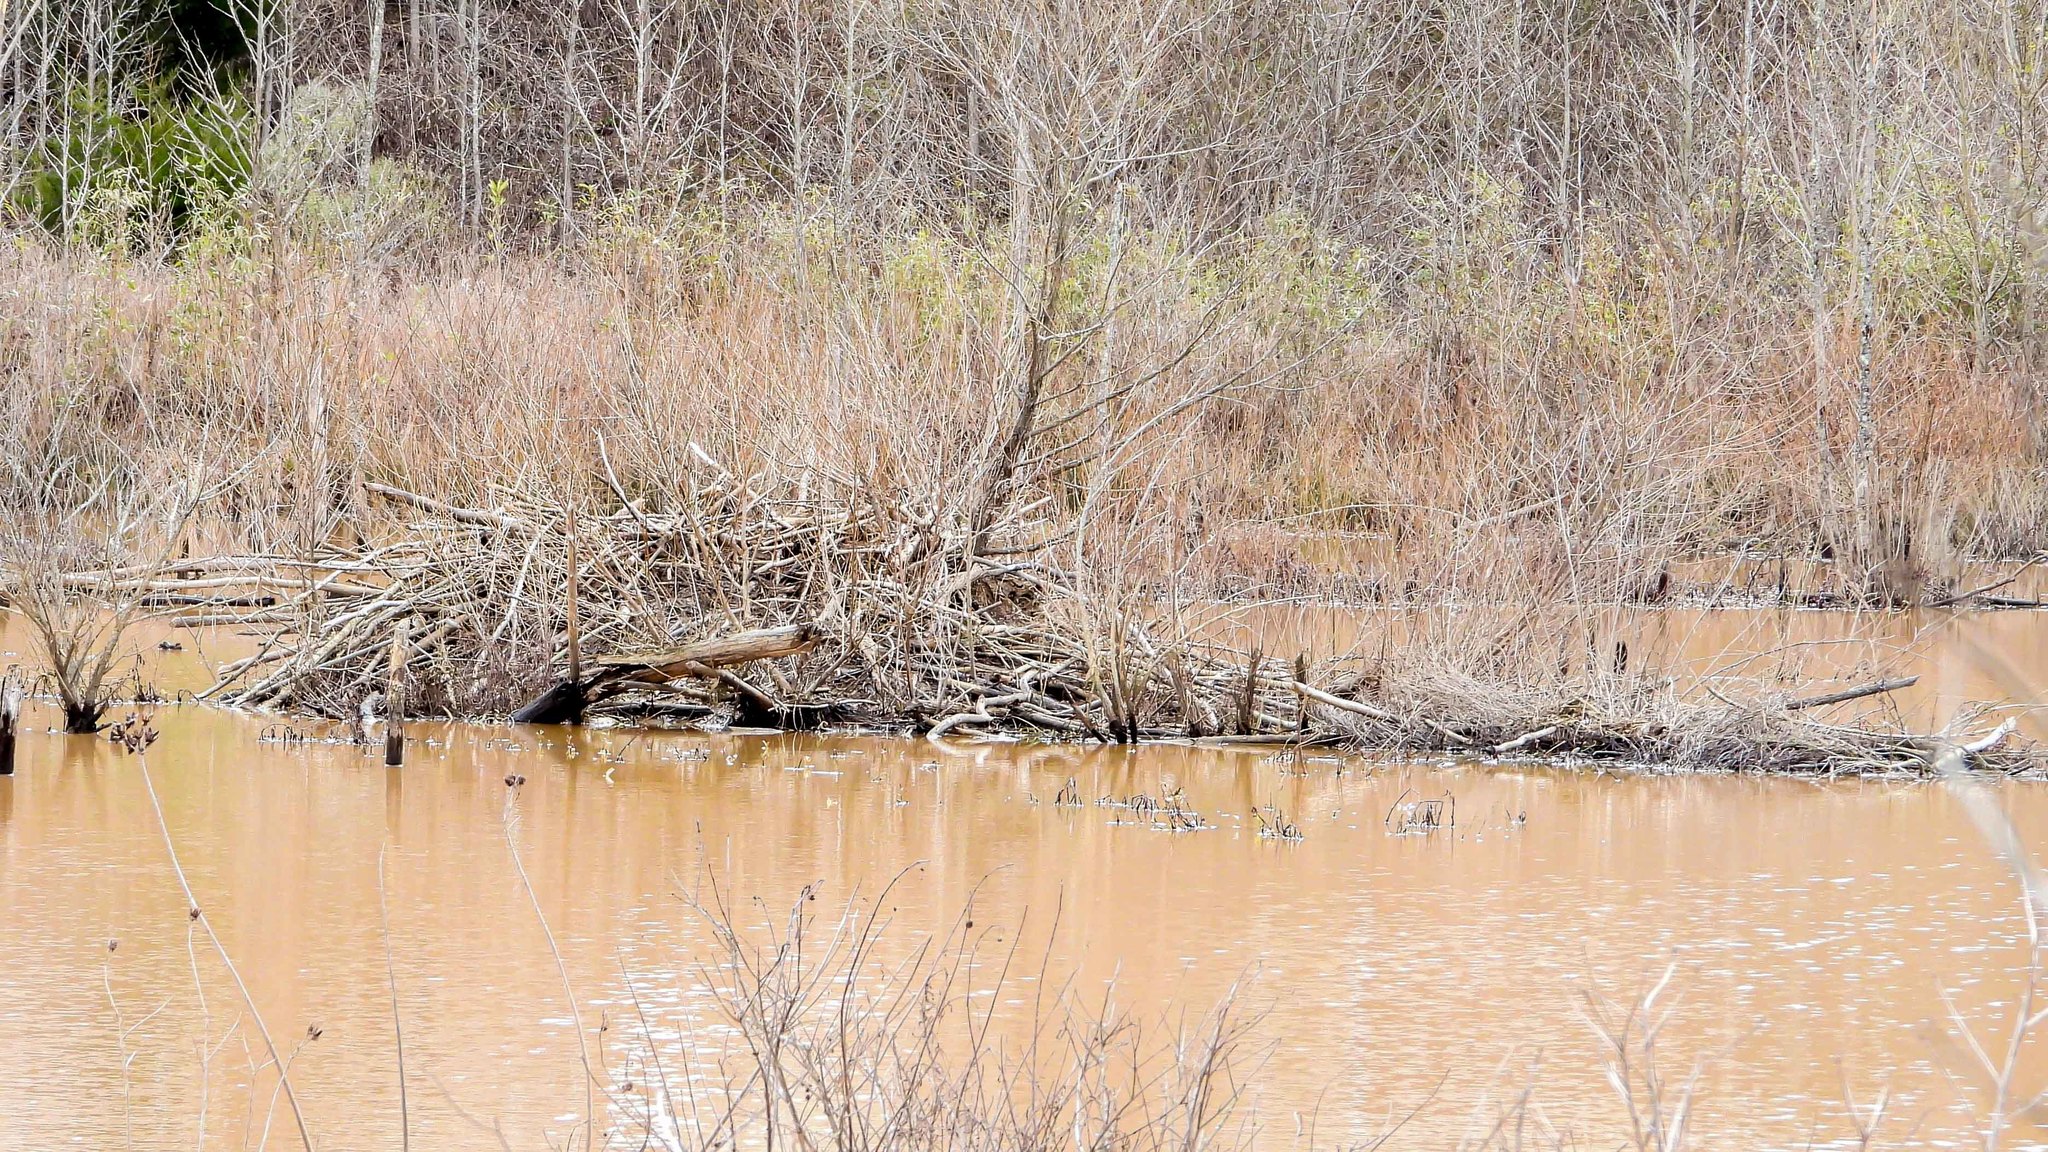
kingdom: Animalia
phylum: Chordata
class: Mammalia
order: Rodentia
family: Castoridae
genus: Castor
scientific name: Castor canadensis
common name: American beaver
